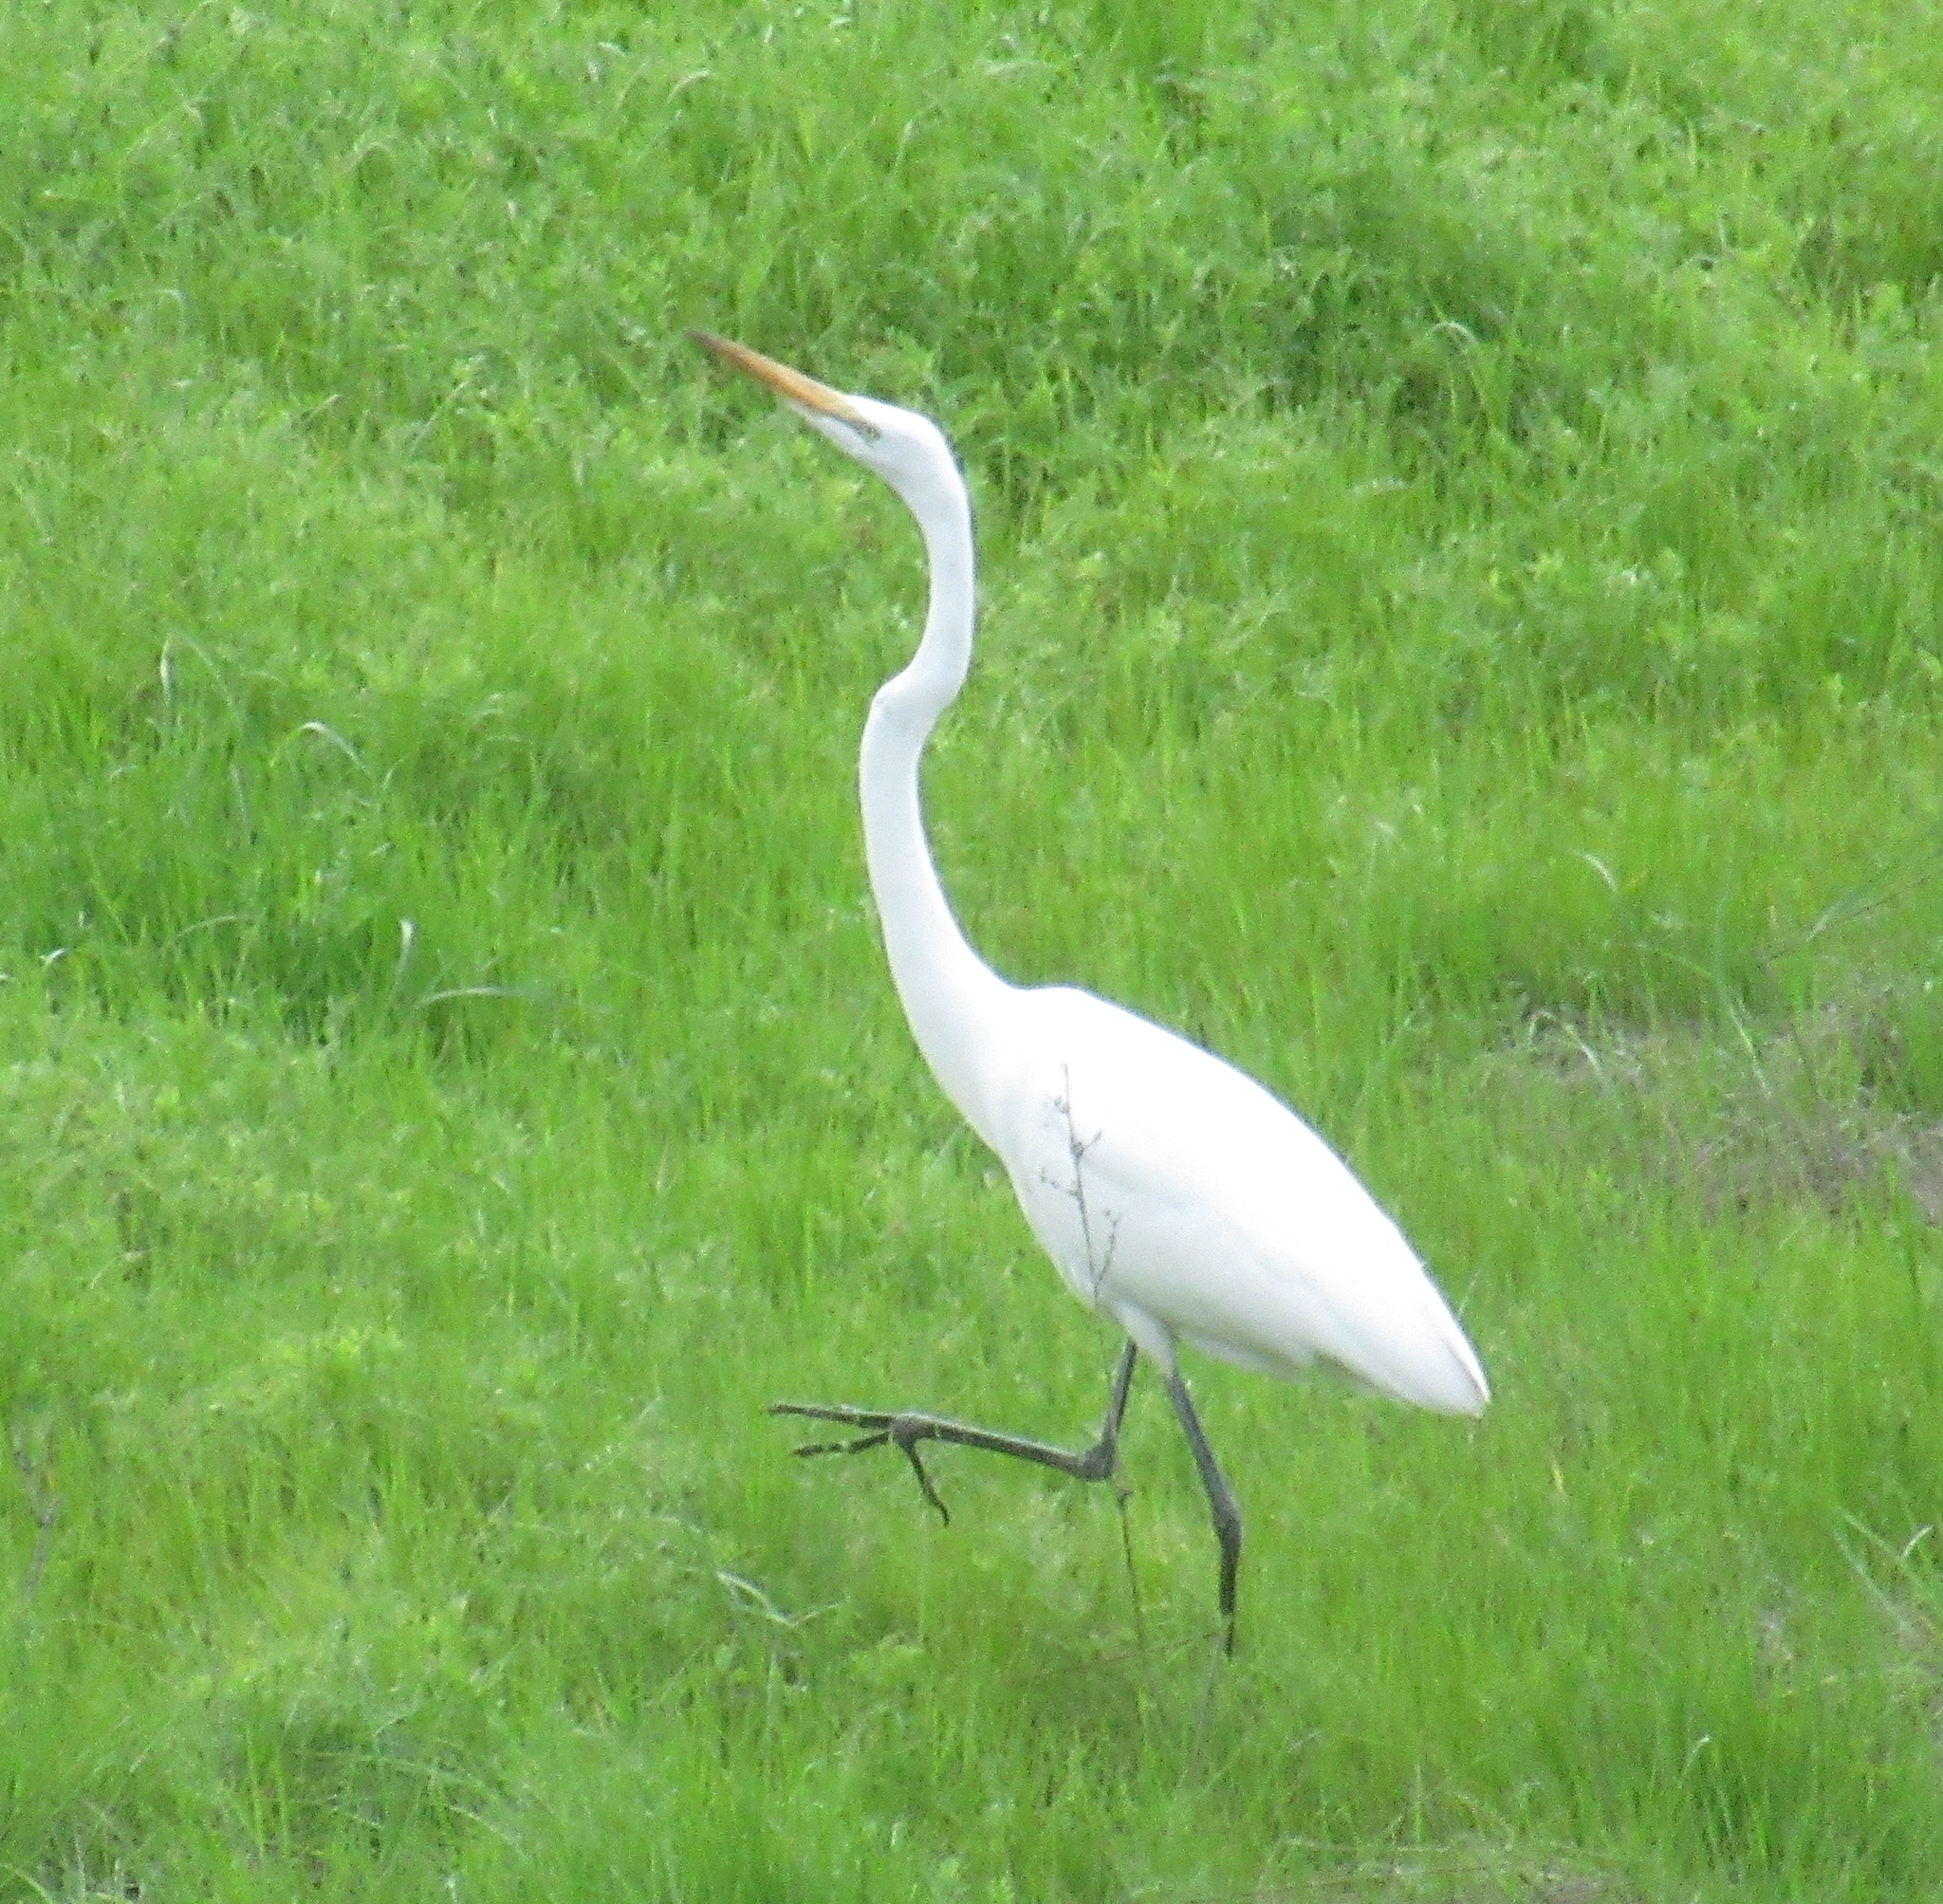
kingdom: Animalia
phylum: Chordata
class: Aves
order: Pelecaniformes
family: Ardeidae
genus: Ardea
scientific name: Ardea alba
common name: Great egret
